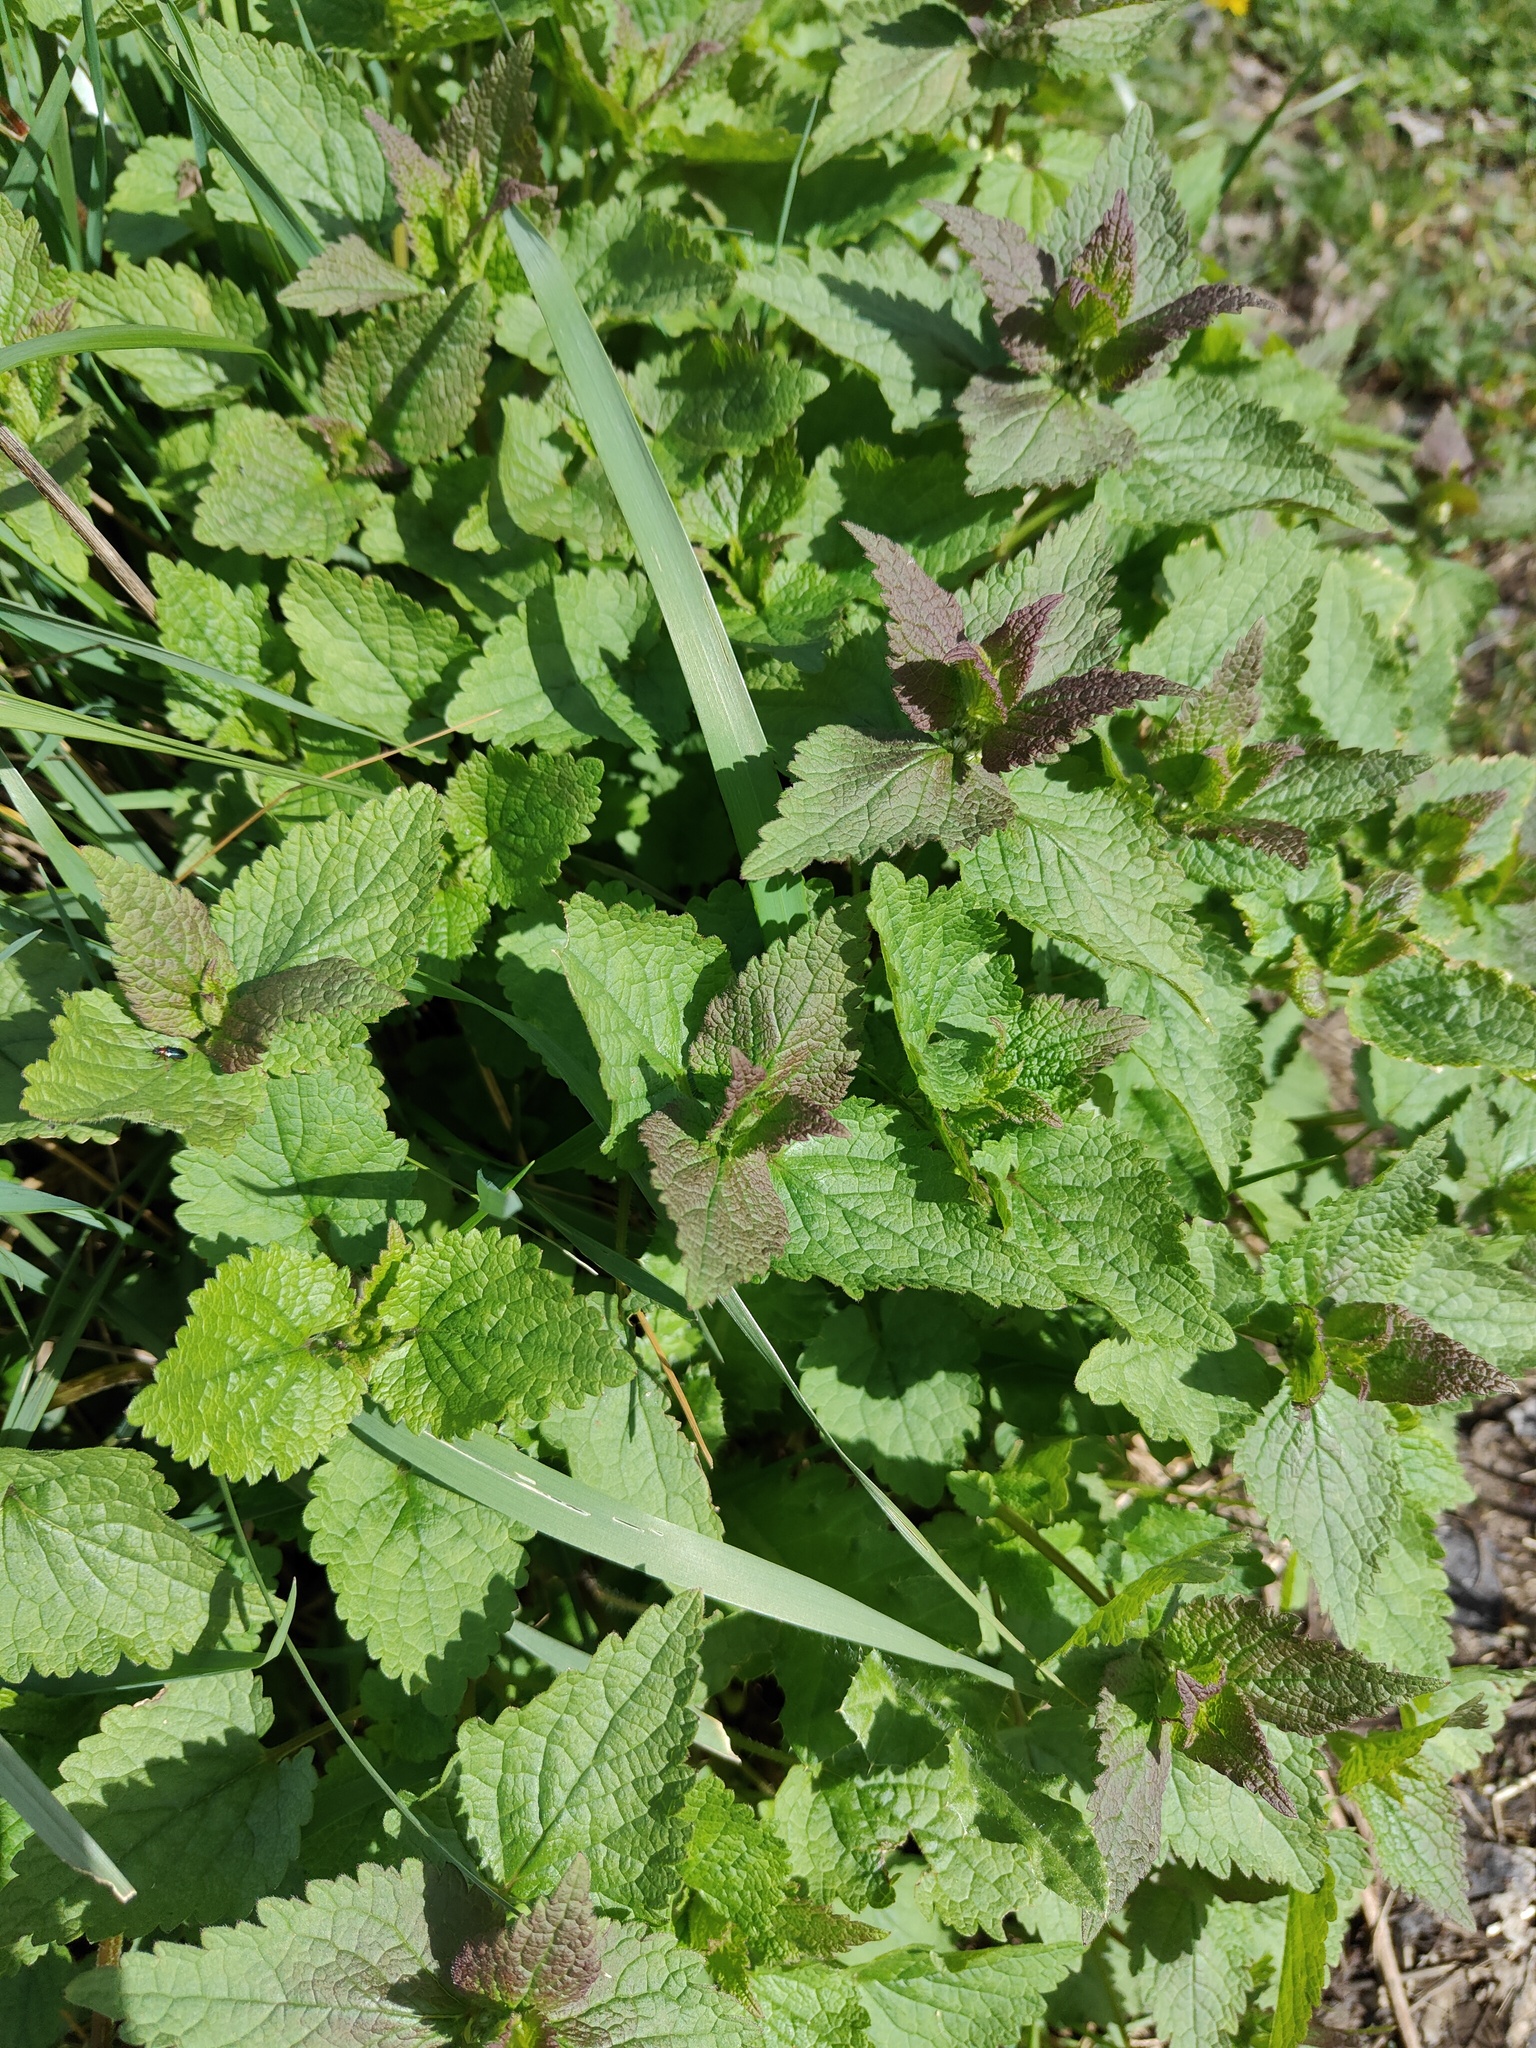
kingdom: Plantae
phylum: Tracheophyta
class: Magnoliopsida
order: Lamiales
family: Lamiaceae
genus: Lamium
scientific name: Lamium album
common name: White dead-nettle
